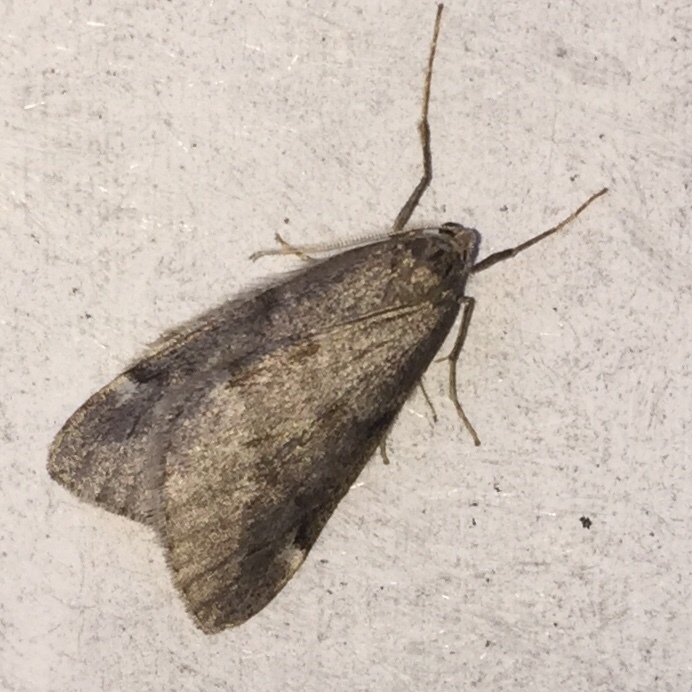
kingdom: Animalia
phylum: Arthropoda
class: Insecta
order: Lepidoptera
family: Geometridae
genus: Alsophila
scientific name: Alsophila pometaria
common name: Fall cankerworm
